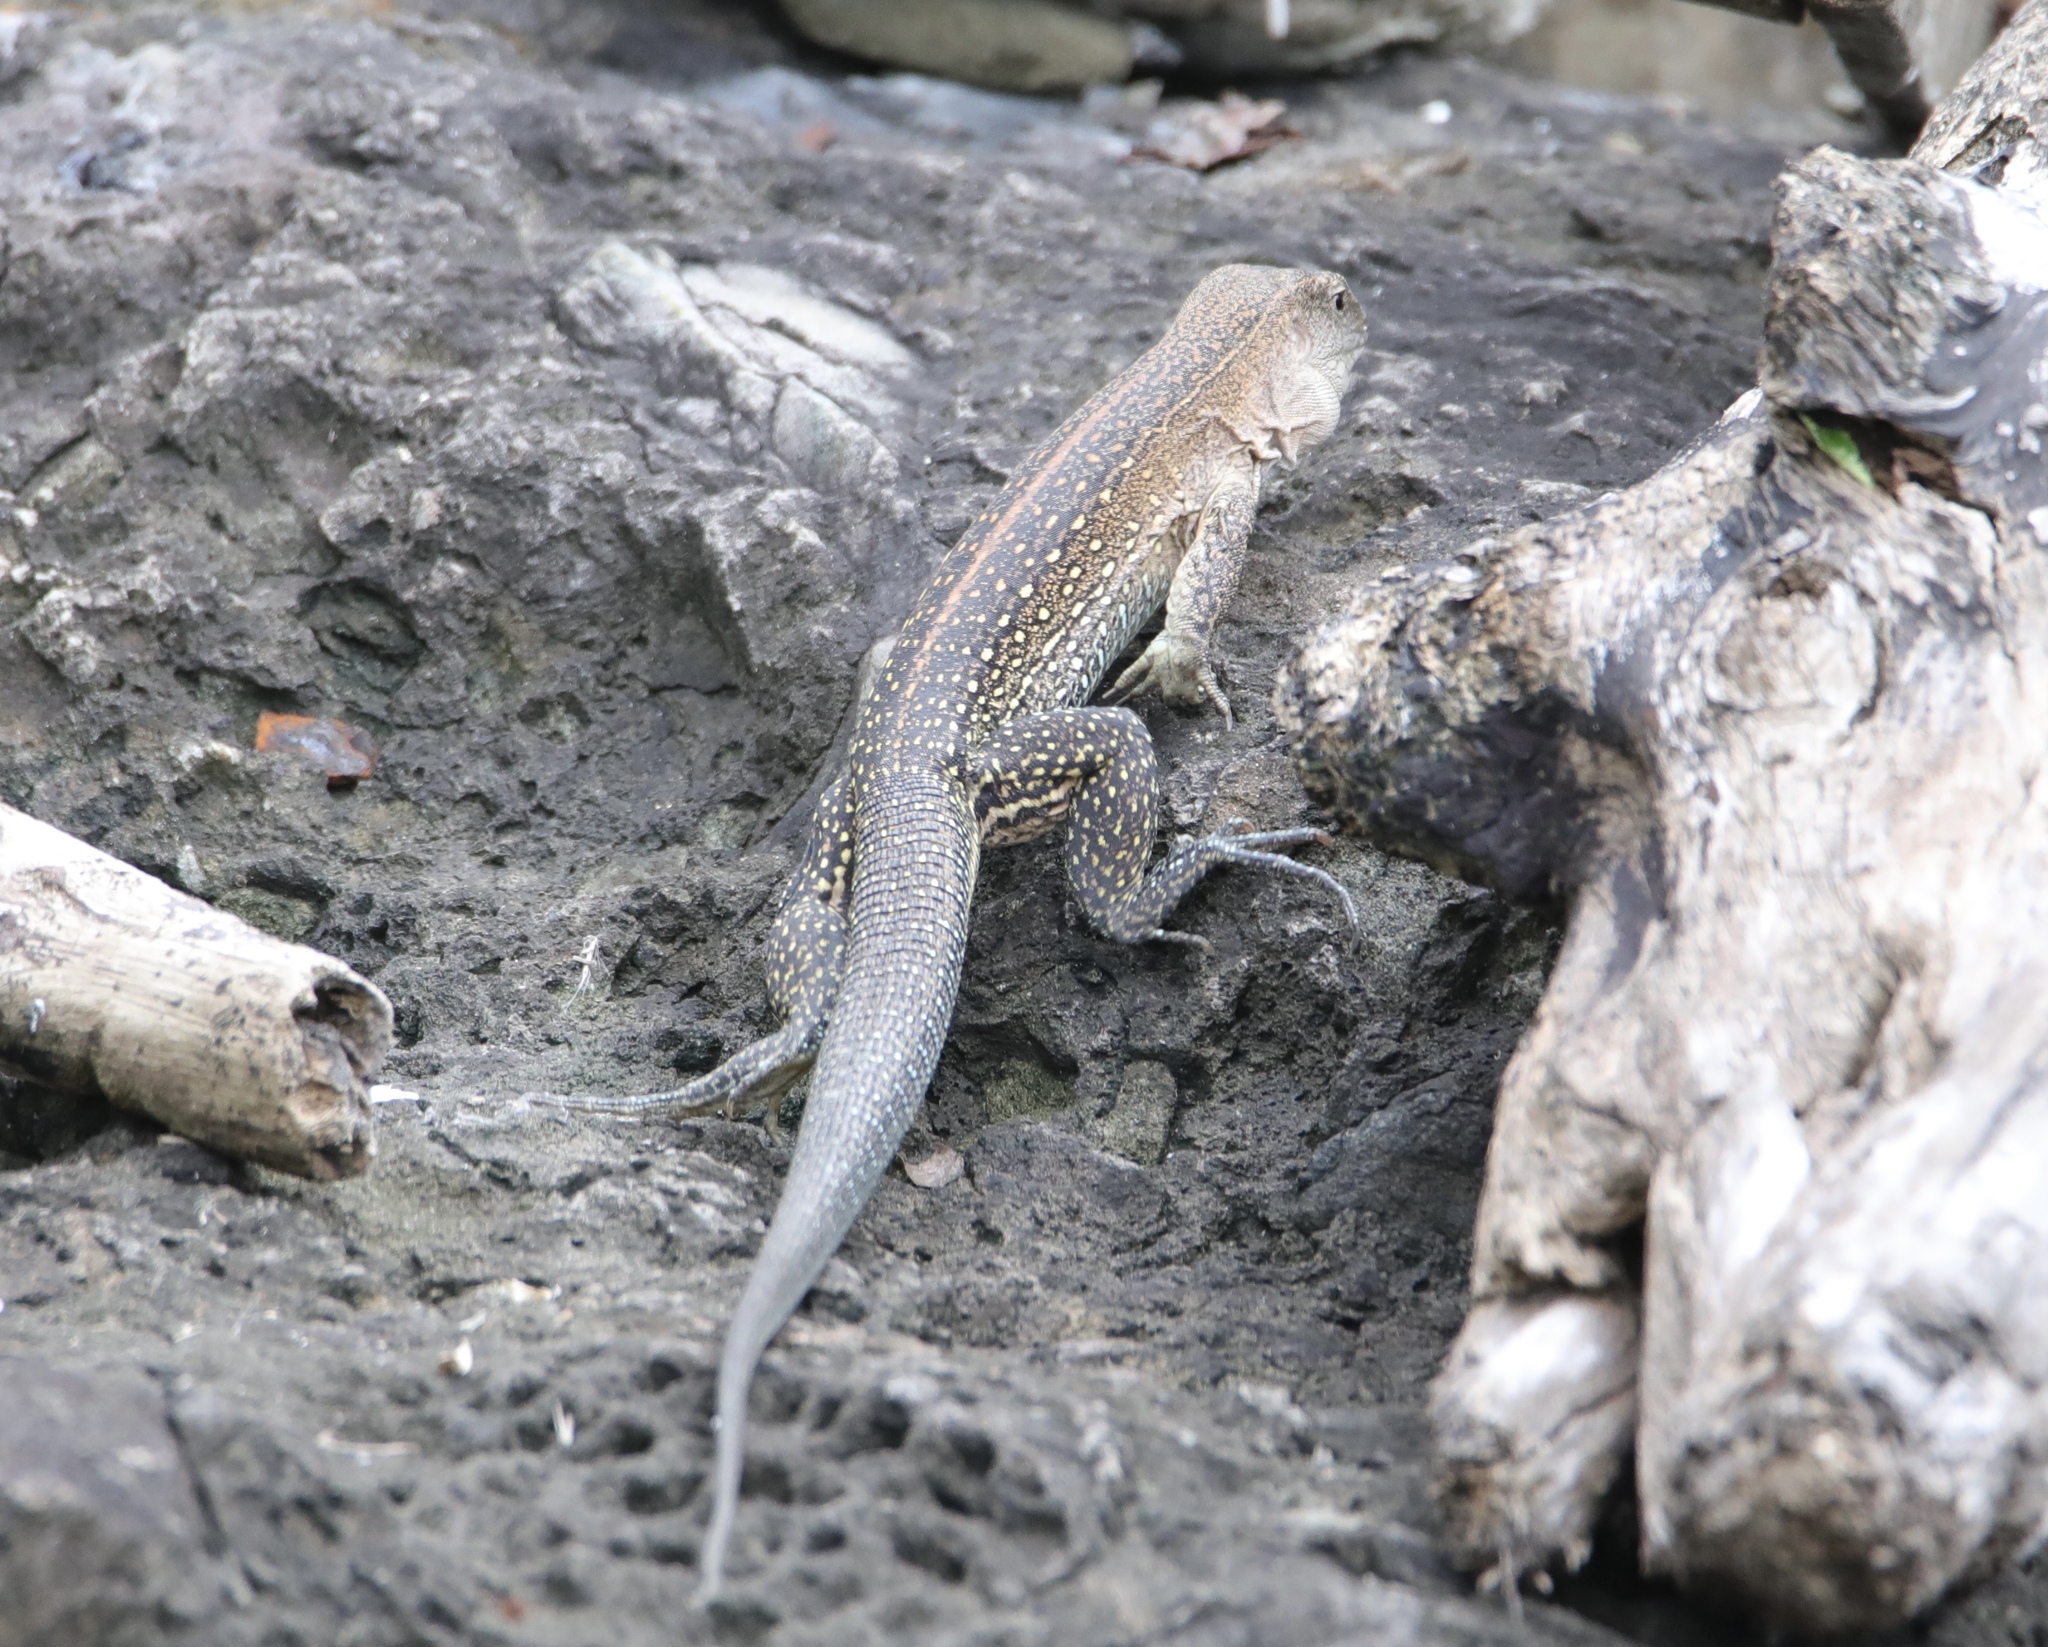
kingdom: Animalia
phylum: Chordata
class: Squamata
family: Teiidae
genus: Ameiva
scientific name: Ameiva praesignis
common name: Giant ameiva
